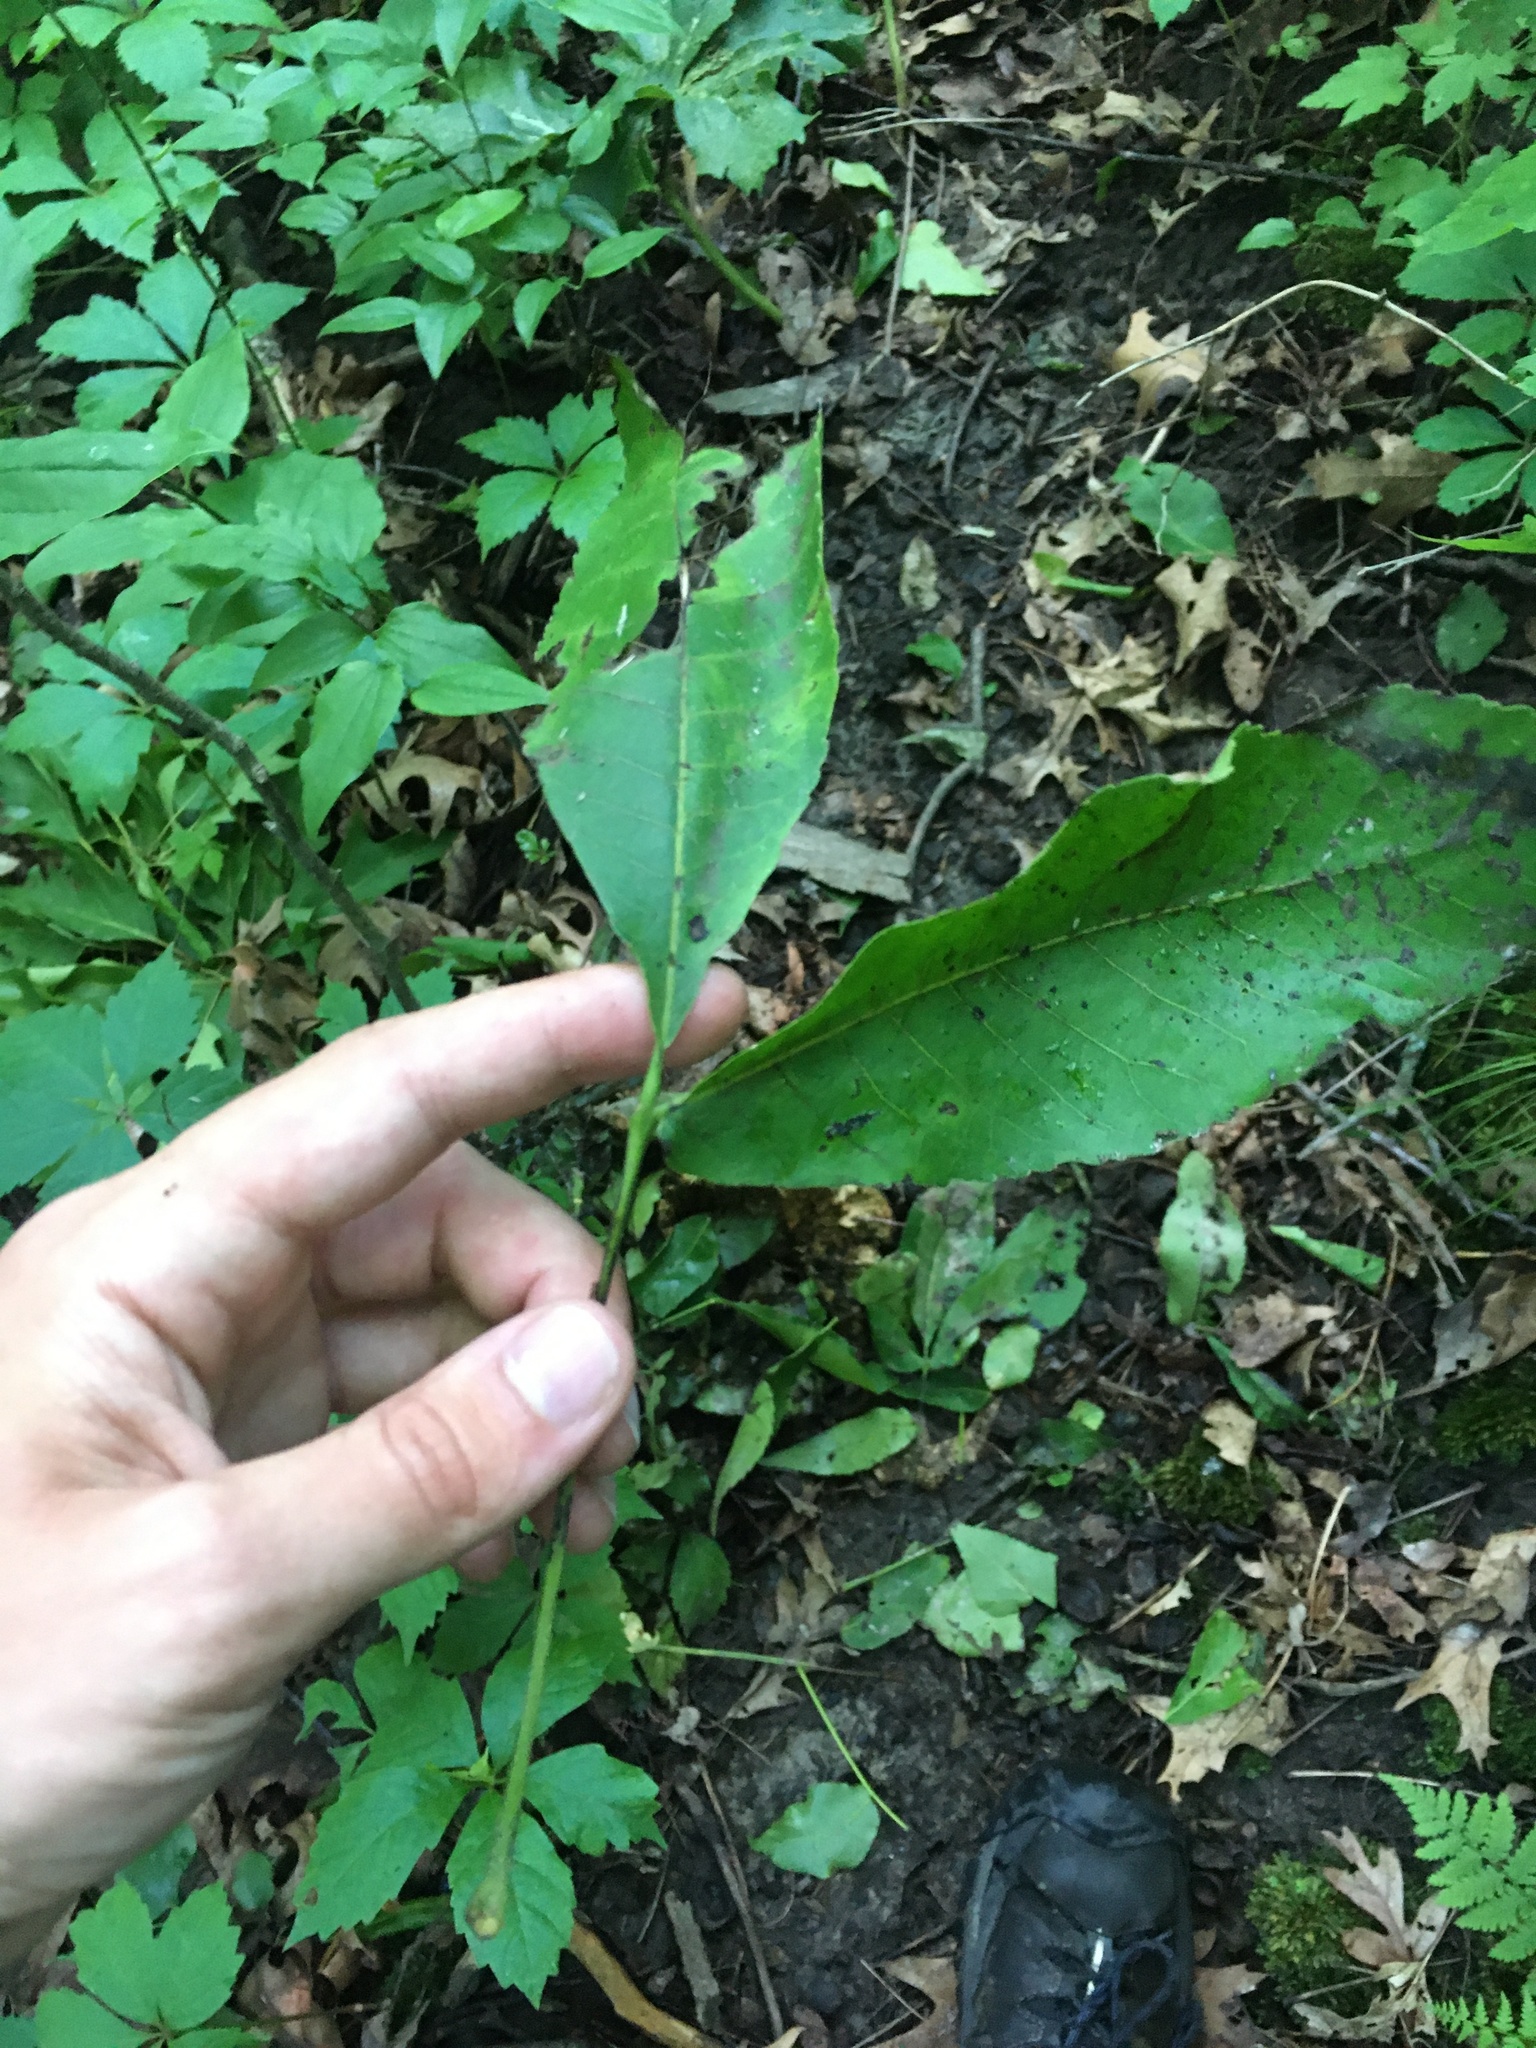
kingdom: Plantae
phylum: Tracheophyta
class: Magnoliopsida
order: Fagales
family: Juglandaceae
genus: Carya
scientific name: Carya ovata
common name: Shagbark hickory
